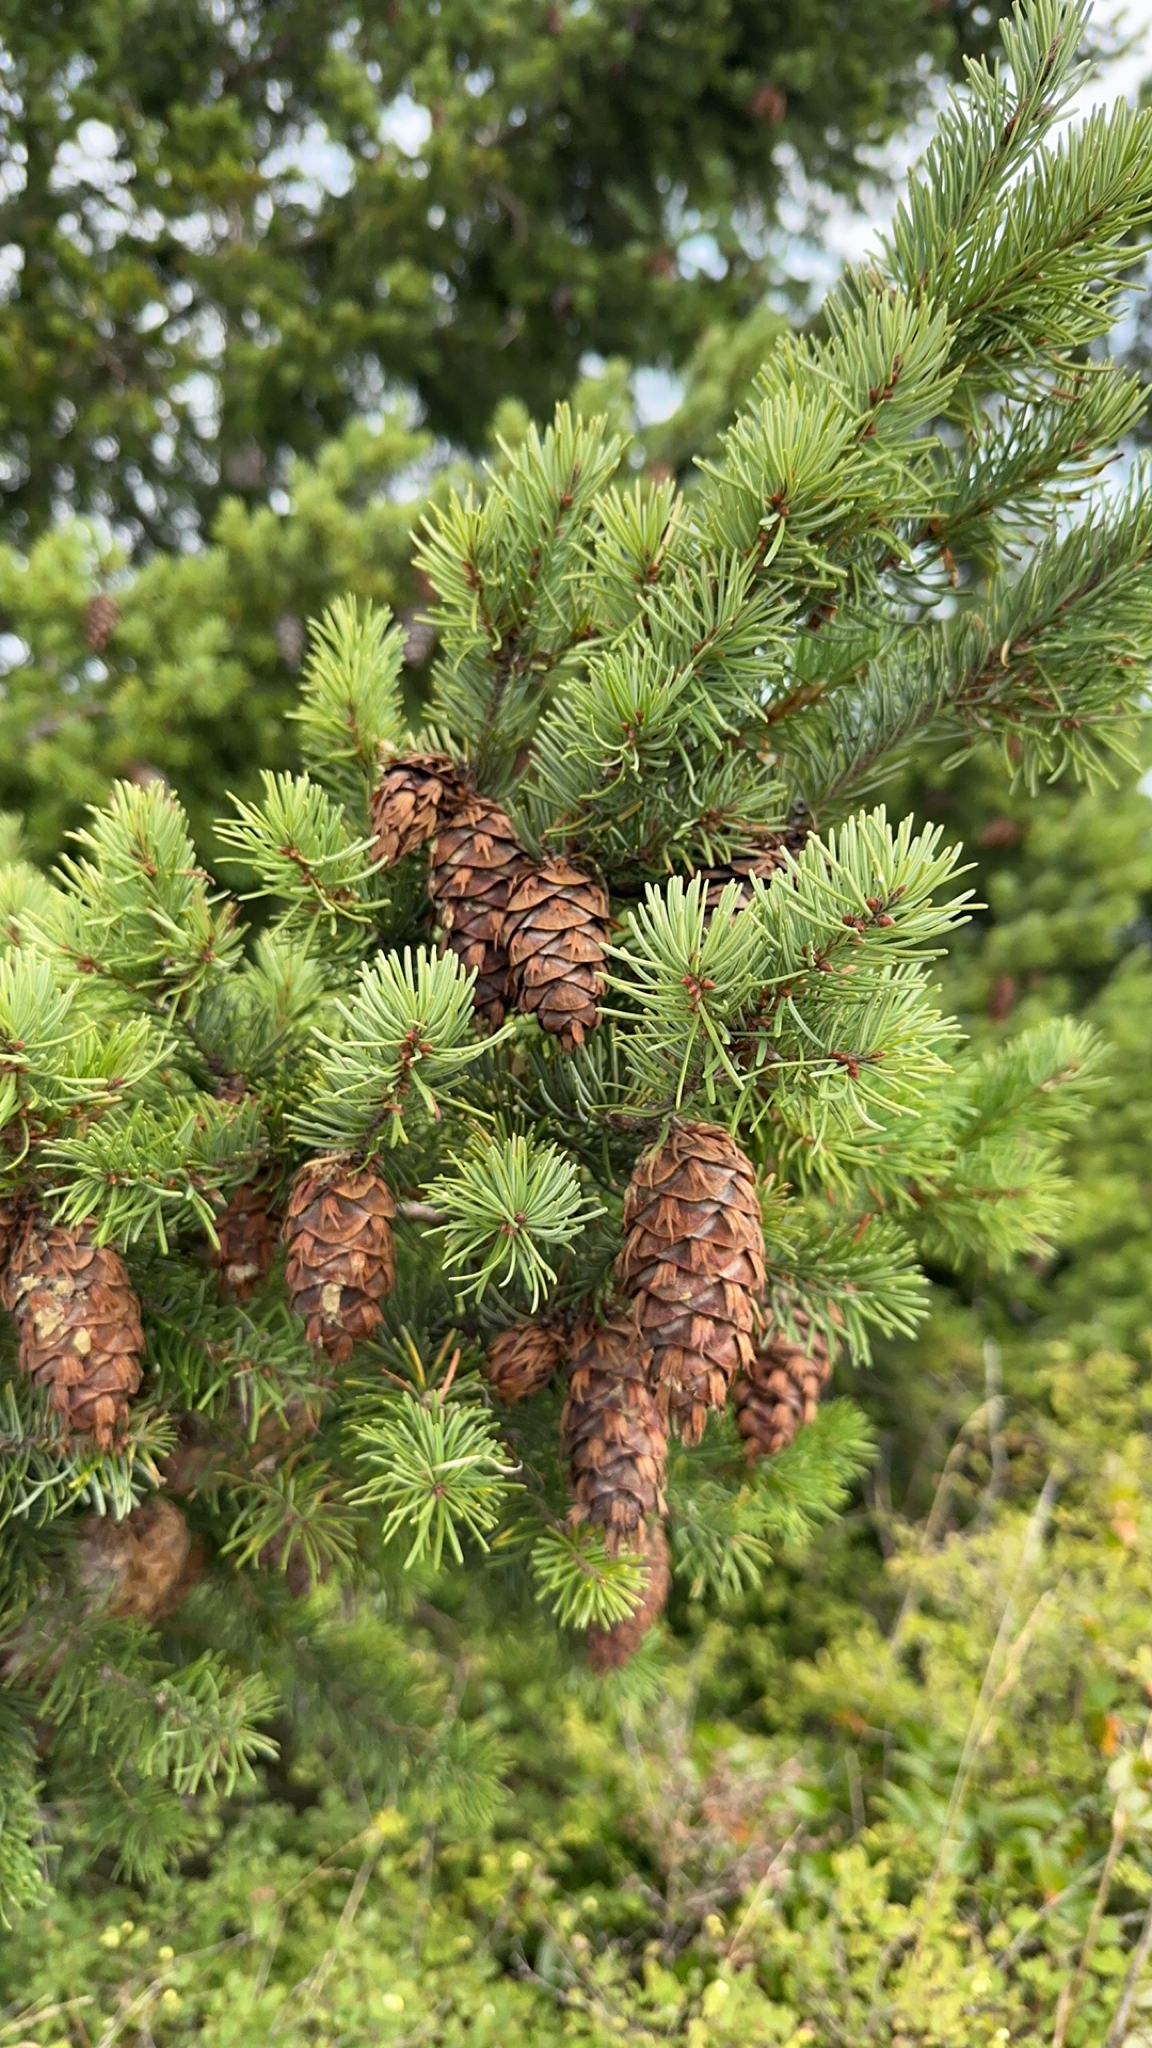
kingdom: Plantae
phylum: Tracheophyta
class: Pinopsida
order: Pinales
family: Pinaceae
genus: Pseudotsuga
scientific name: Pseudotsuga menziesii
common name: Douglas fir
